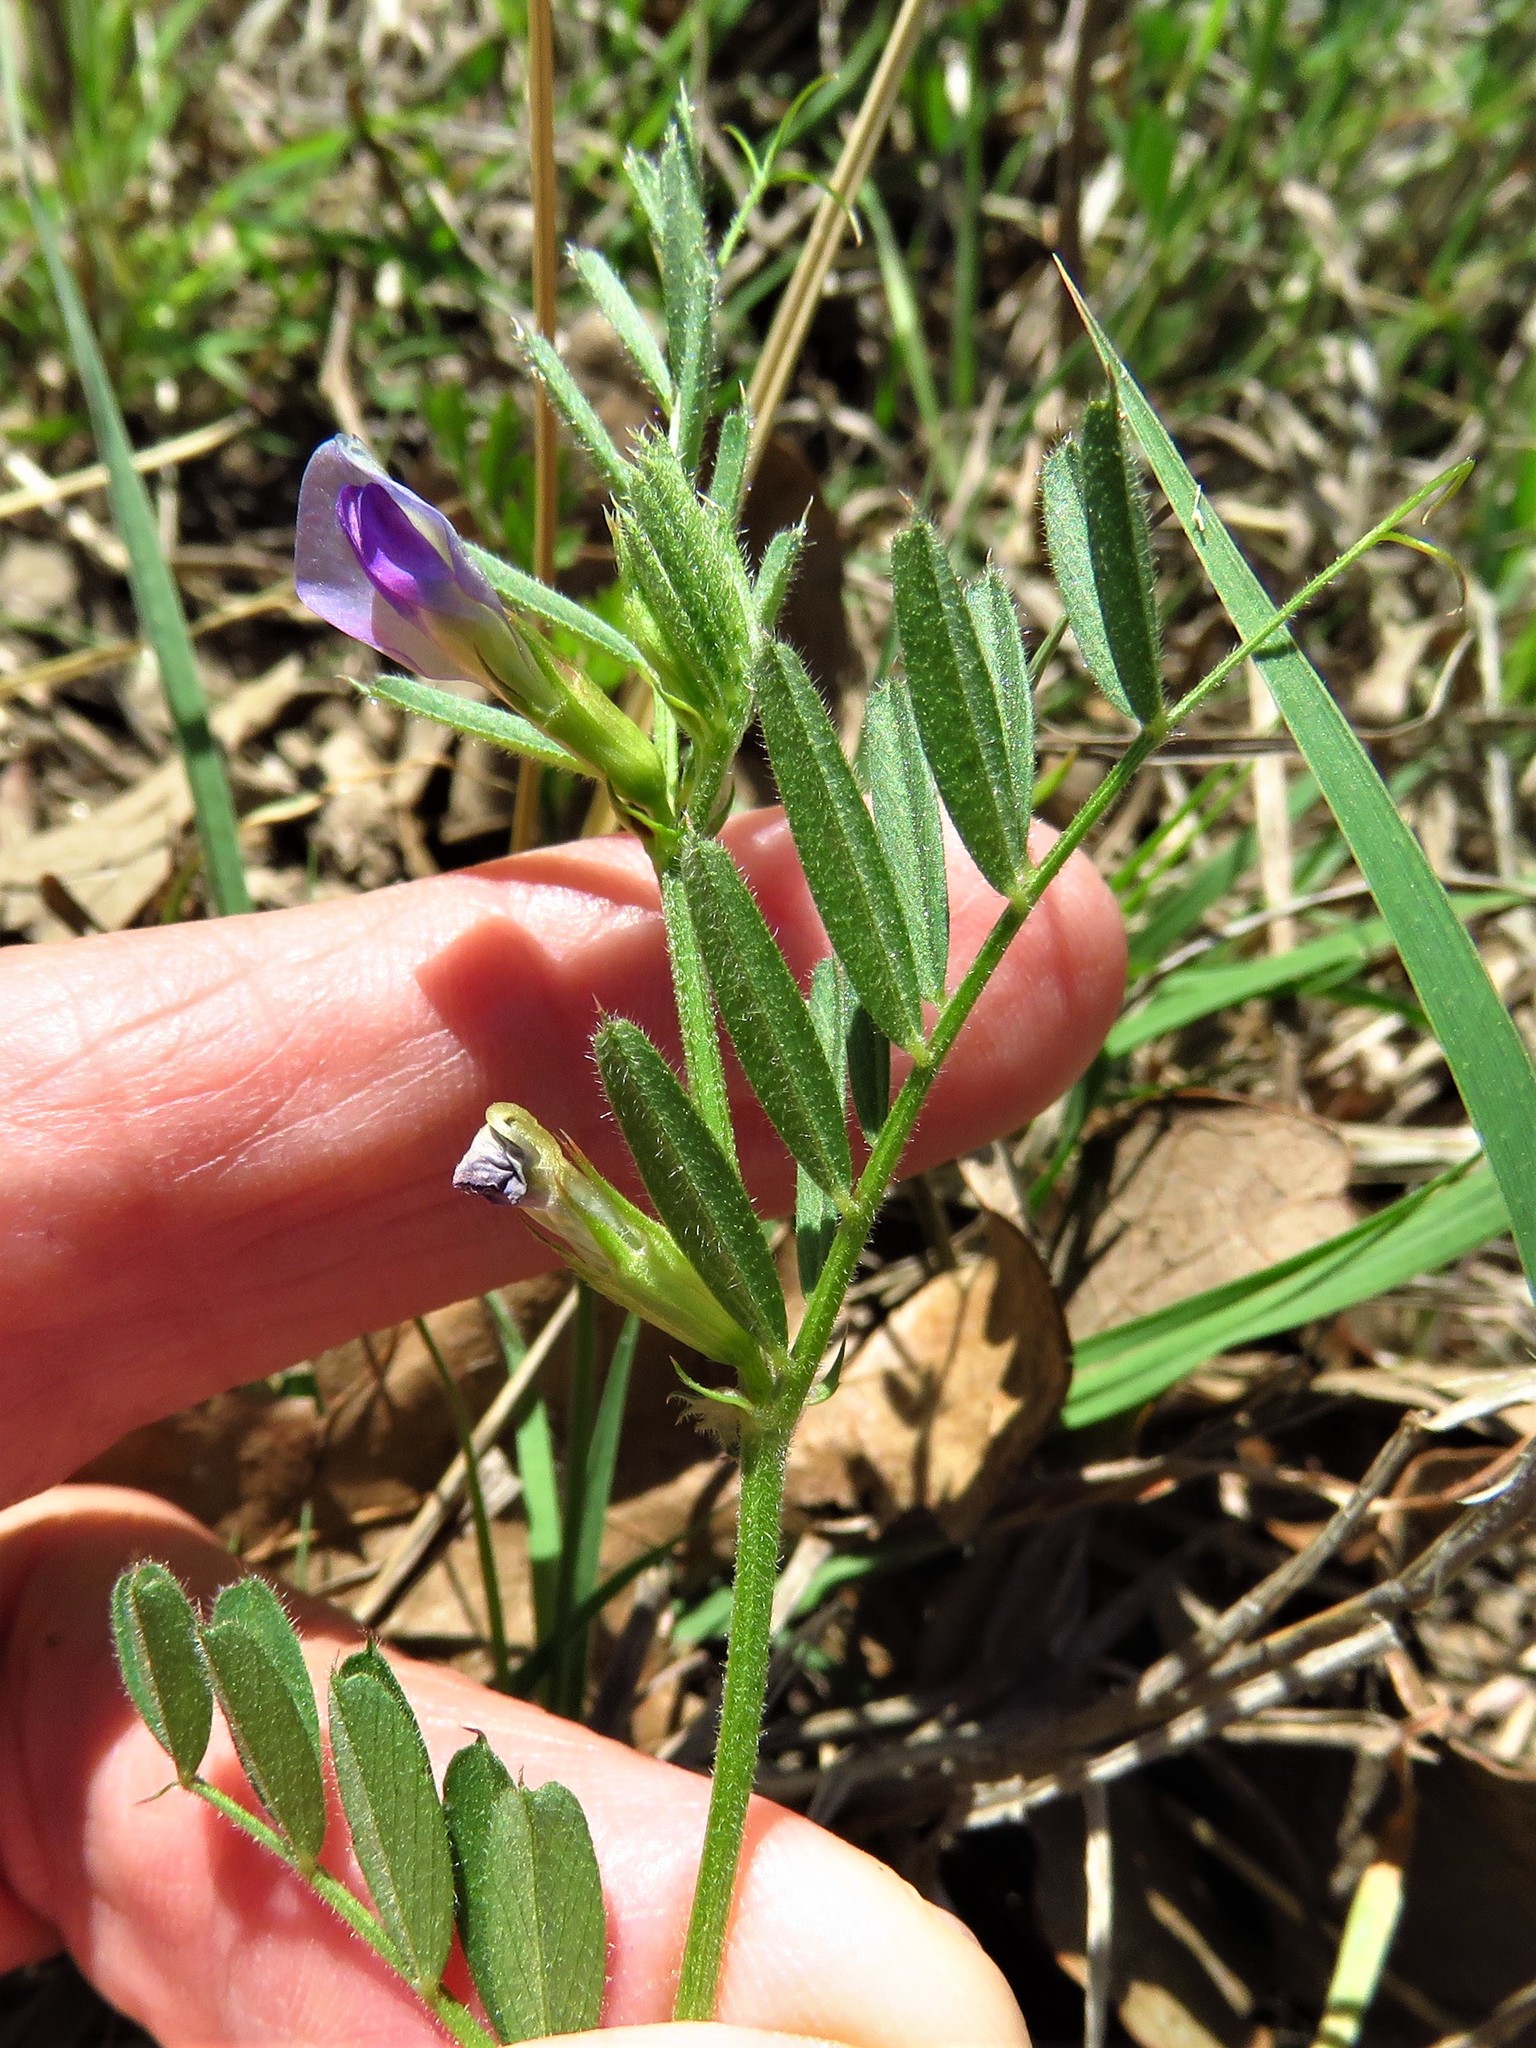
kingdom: Plantae
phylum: Tracheophyta
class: Magnoliopsida
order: Fabales
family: Fabaceae
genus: Vicia
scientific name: Vicia sativa
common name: Garden vetch
